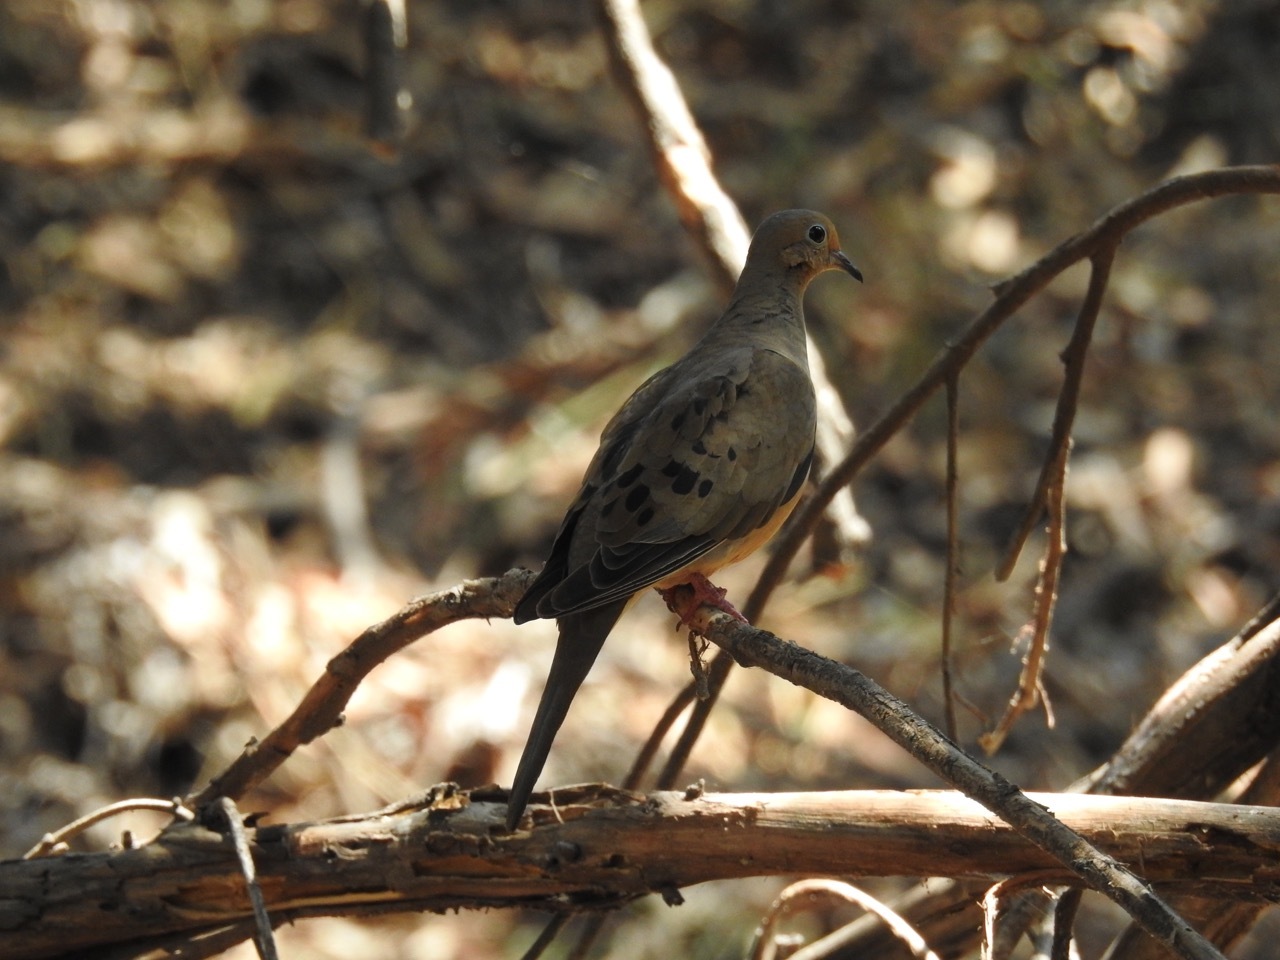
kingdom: Animalia
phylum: Chordata
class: Aves
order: Columbiformes
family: Columbidae
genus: Zenaida
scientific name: Zenaida macroura
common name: Mourning dove
